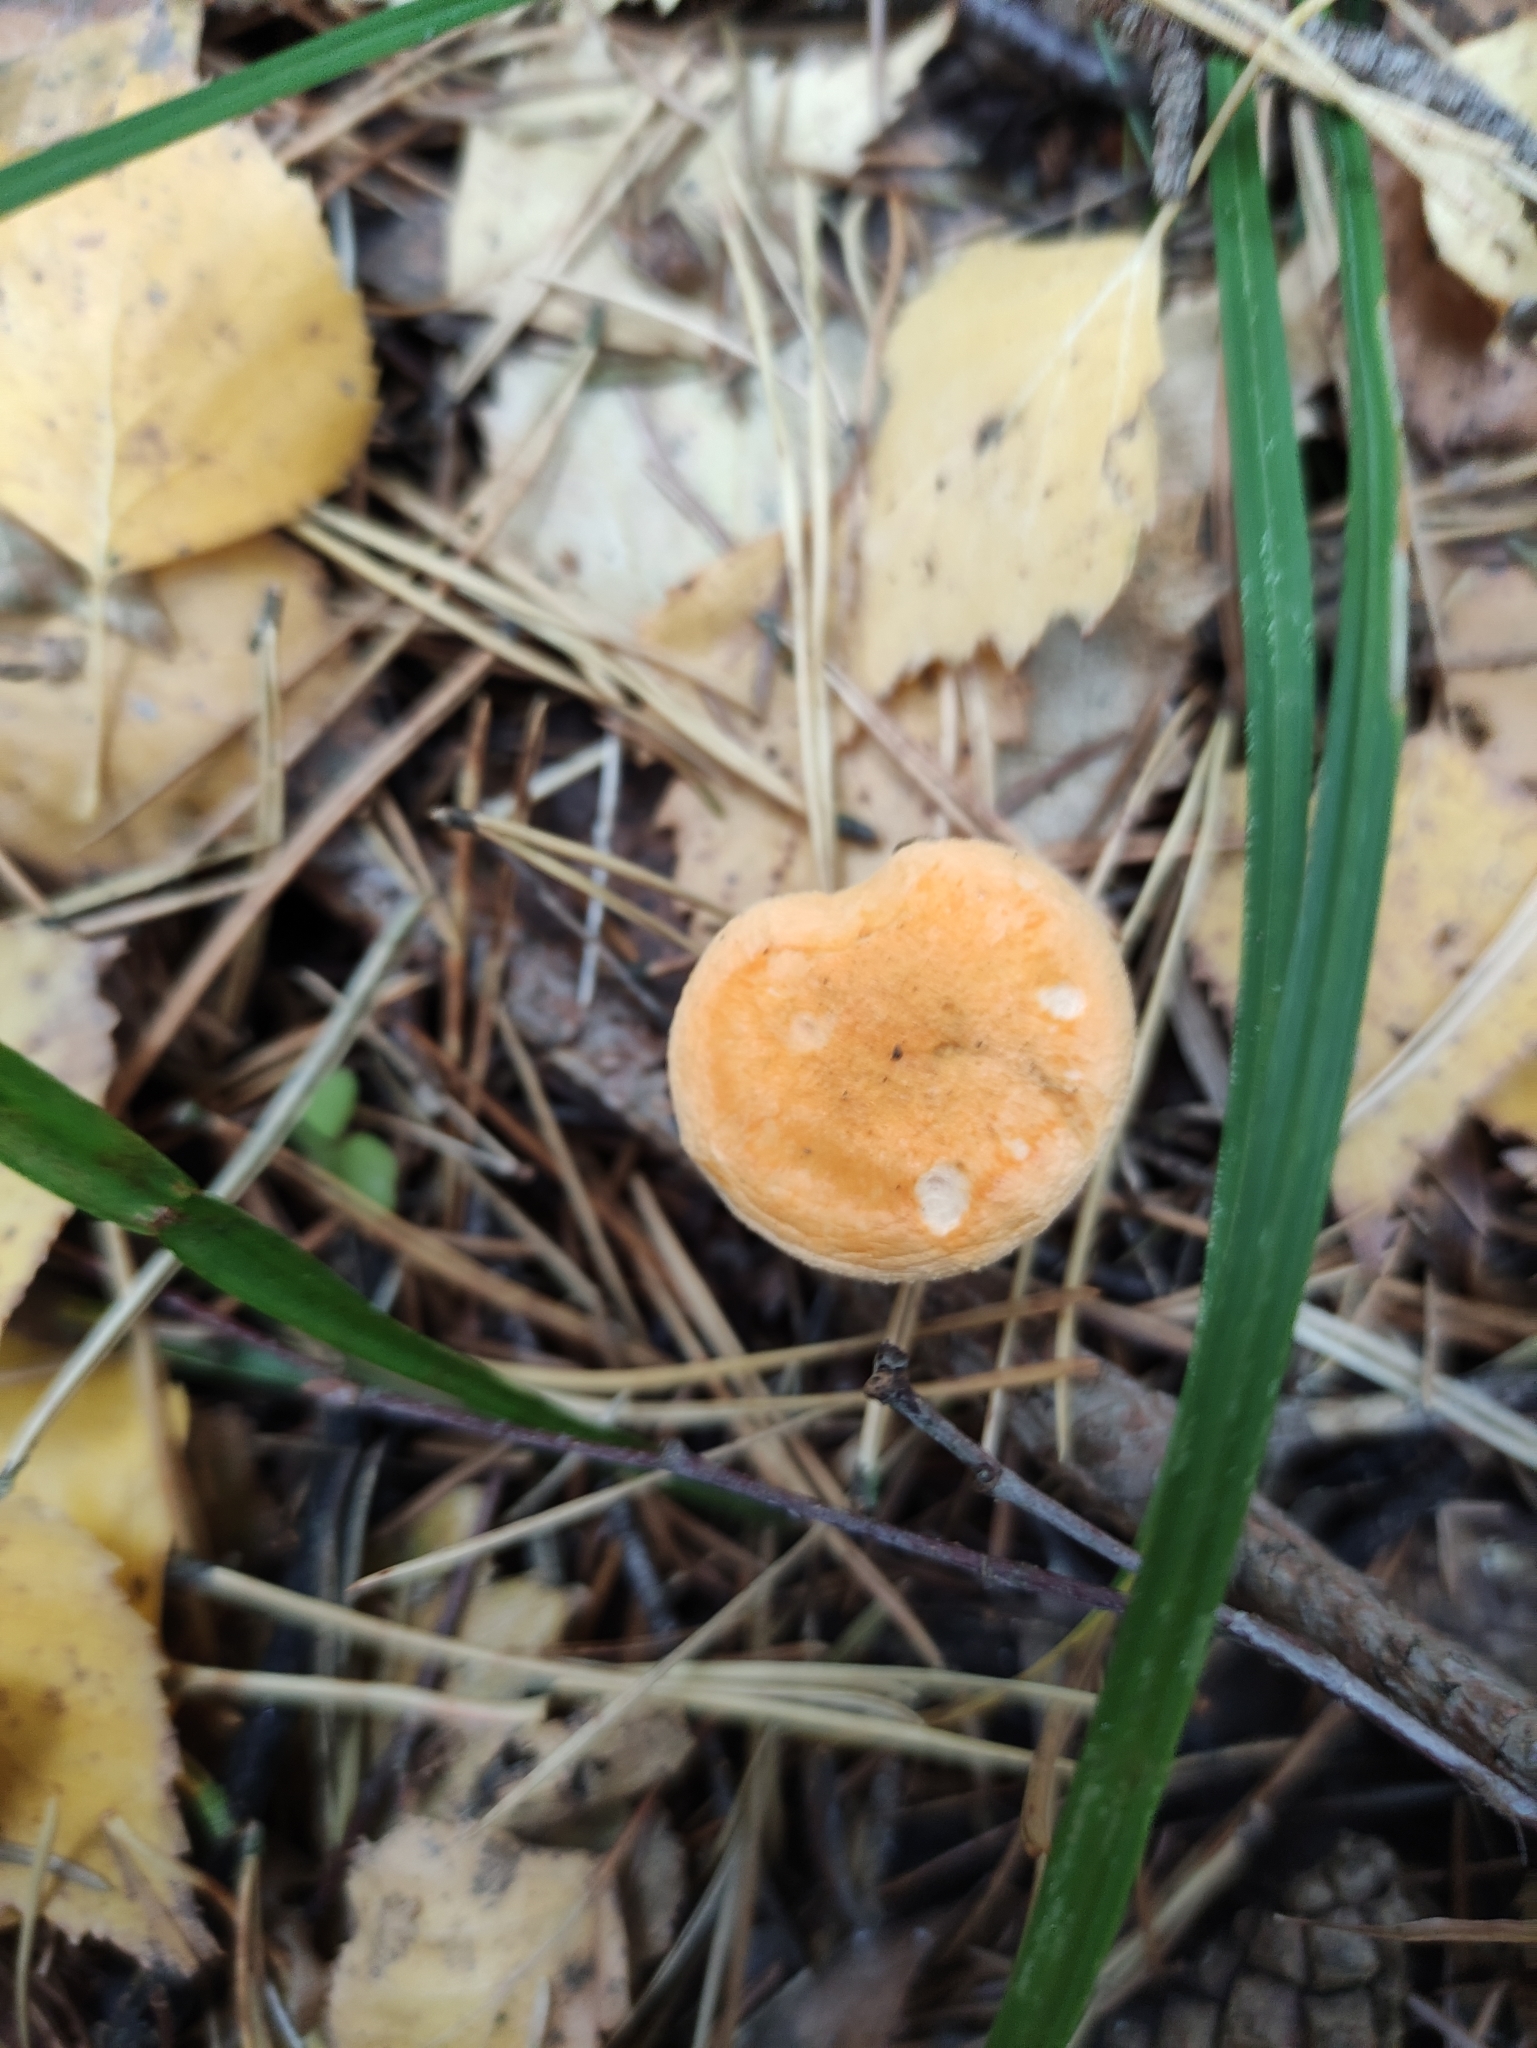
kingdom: Fungi
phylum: Basidiomycota
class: Agaricomycetes
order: Boletales
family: Hygrophoropsidaceae
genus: Hygrophoropsis
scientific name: Hygrophoropsis aurantiaca
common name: False chanterelle
